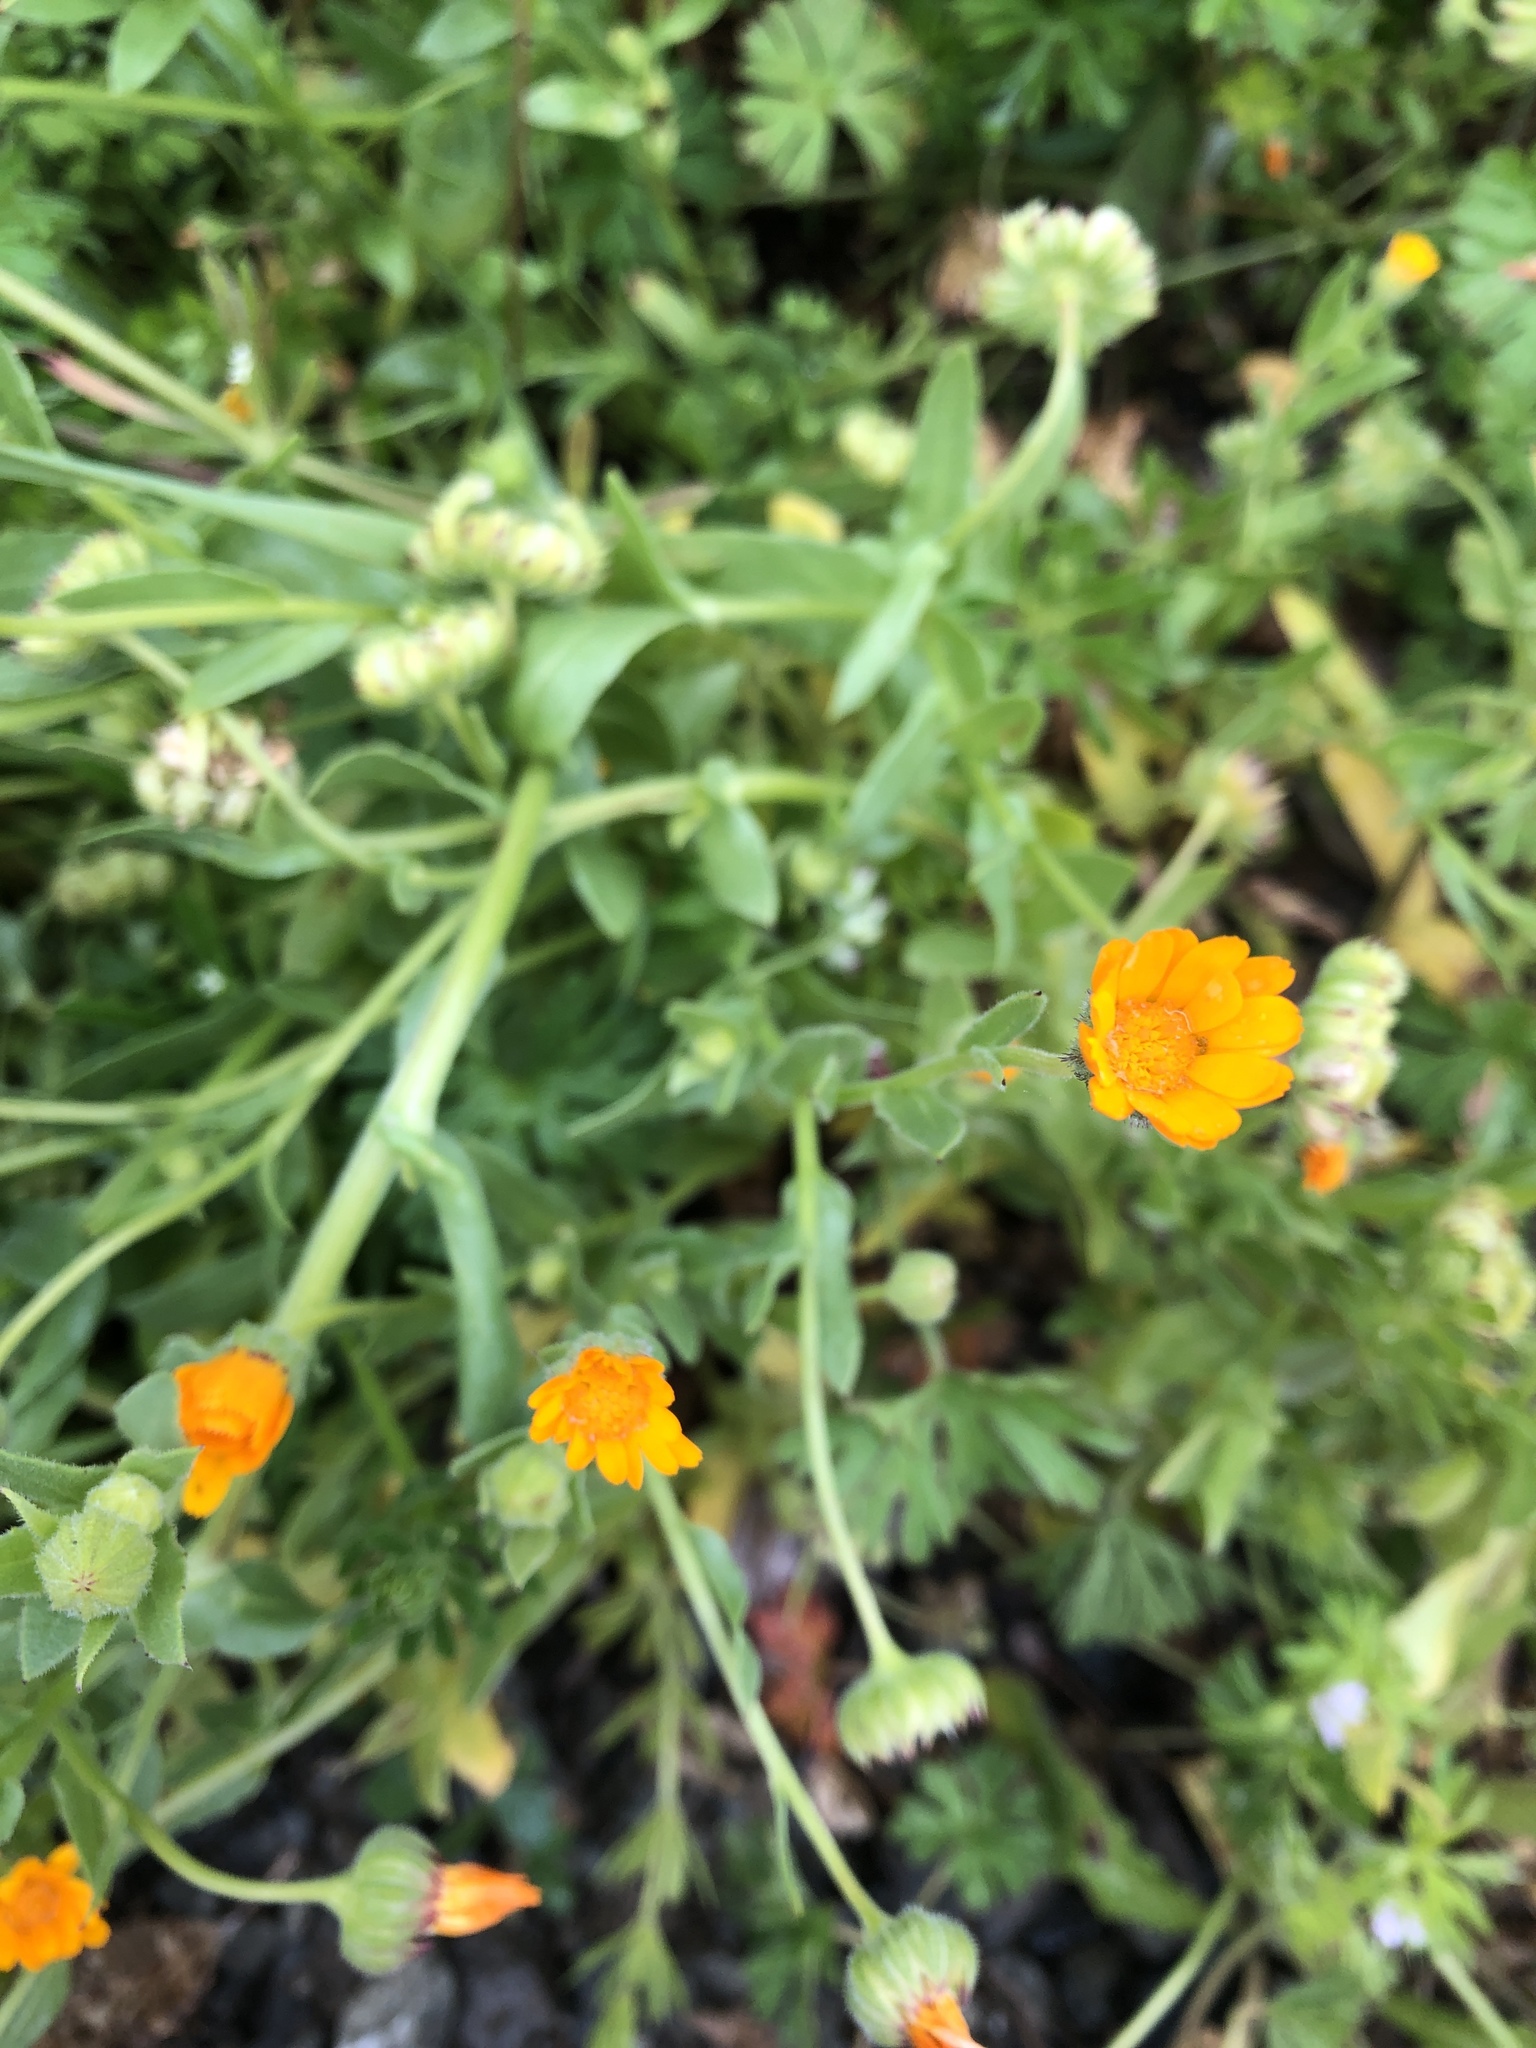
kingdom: Plantae
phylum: Tracheophyta
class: Magnoliopsida
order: Asterales
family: Asteraceae
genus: Calendula
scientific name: Calendula arvensis
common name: Field marigold
